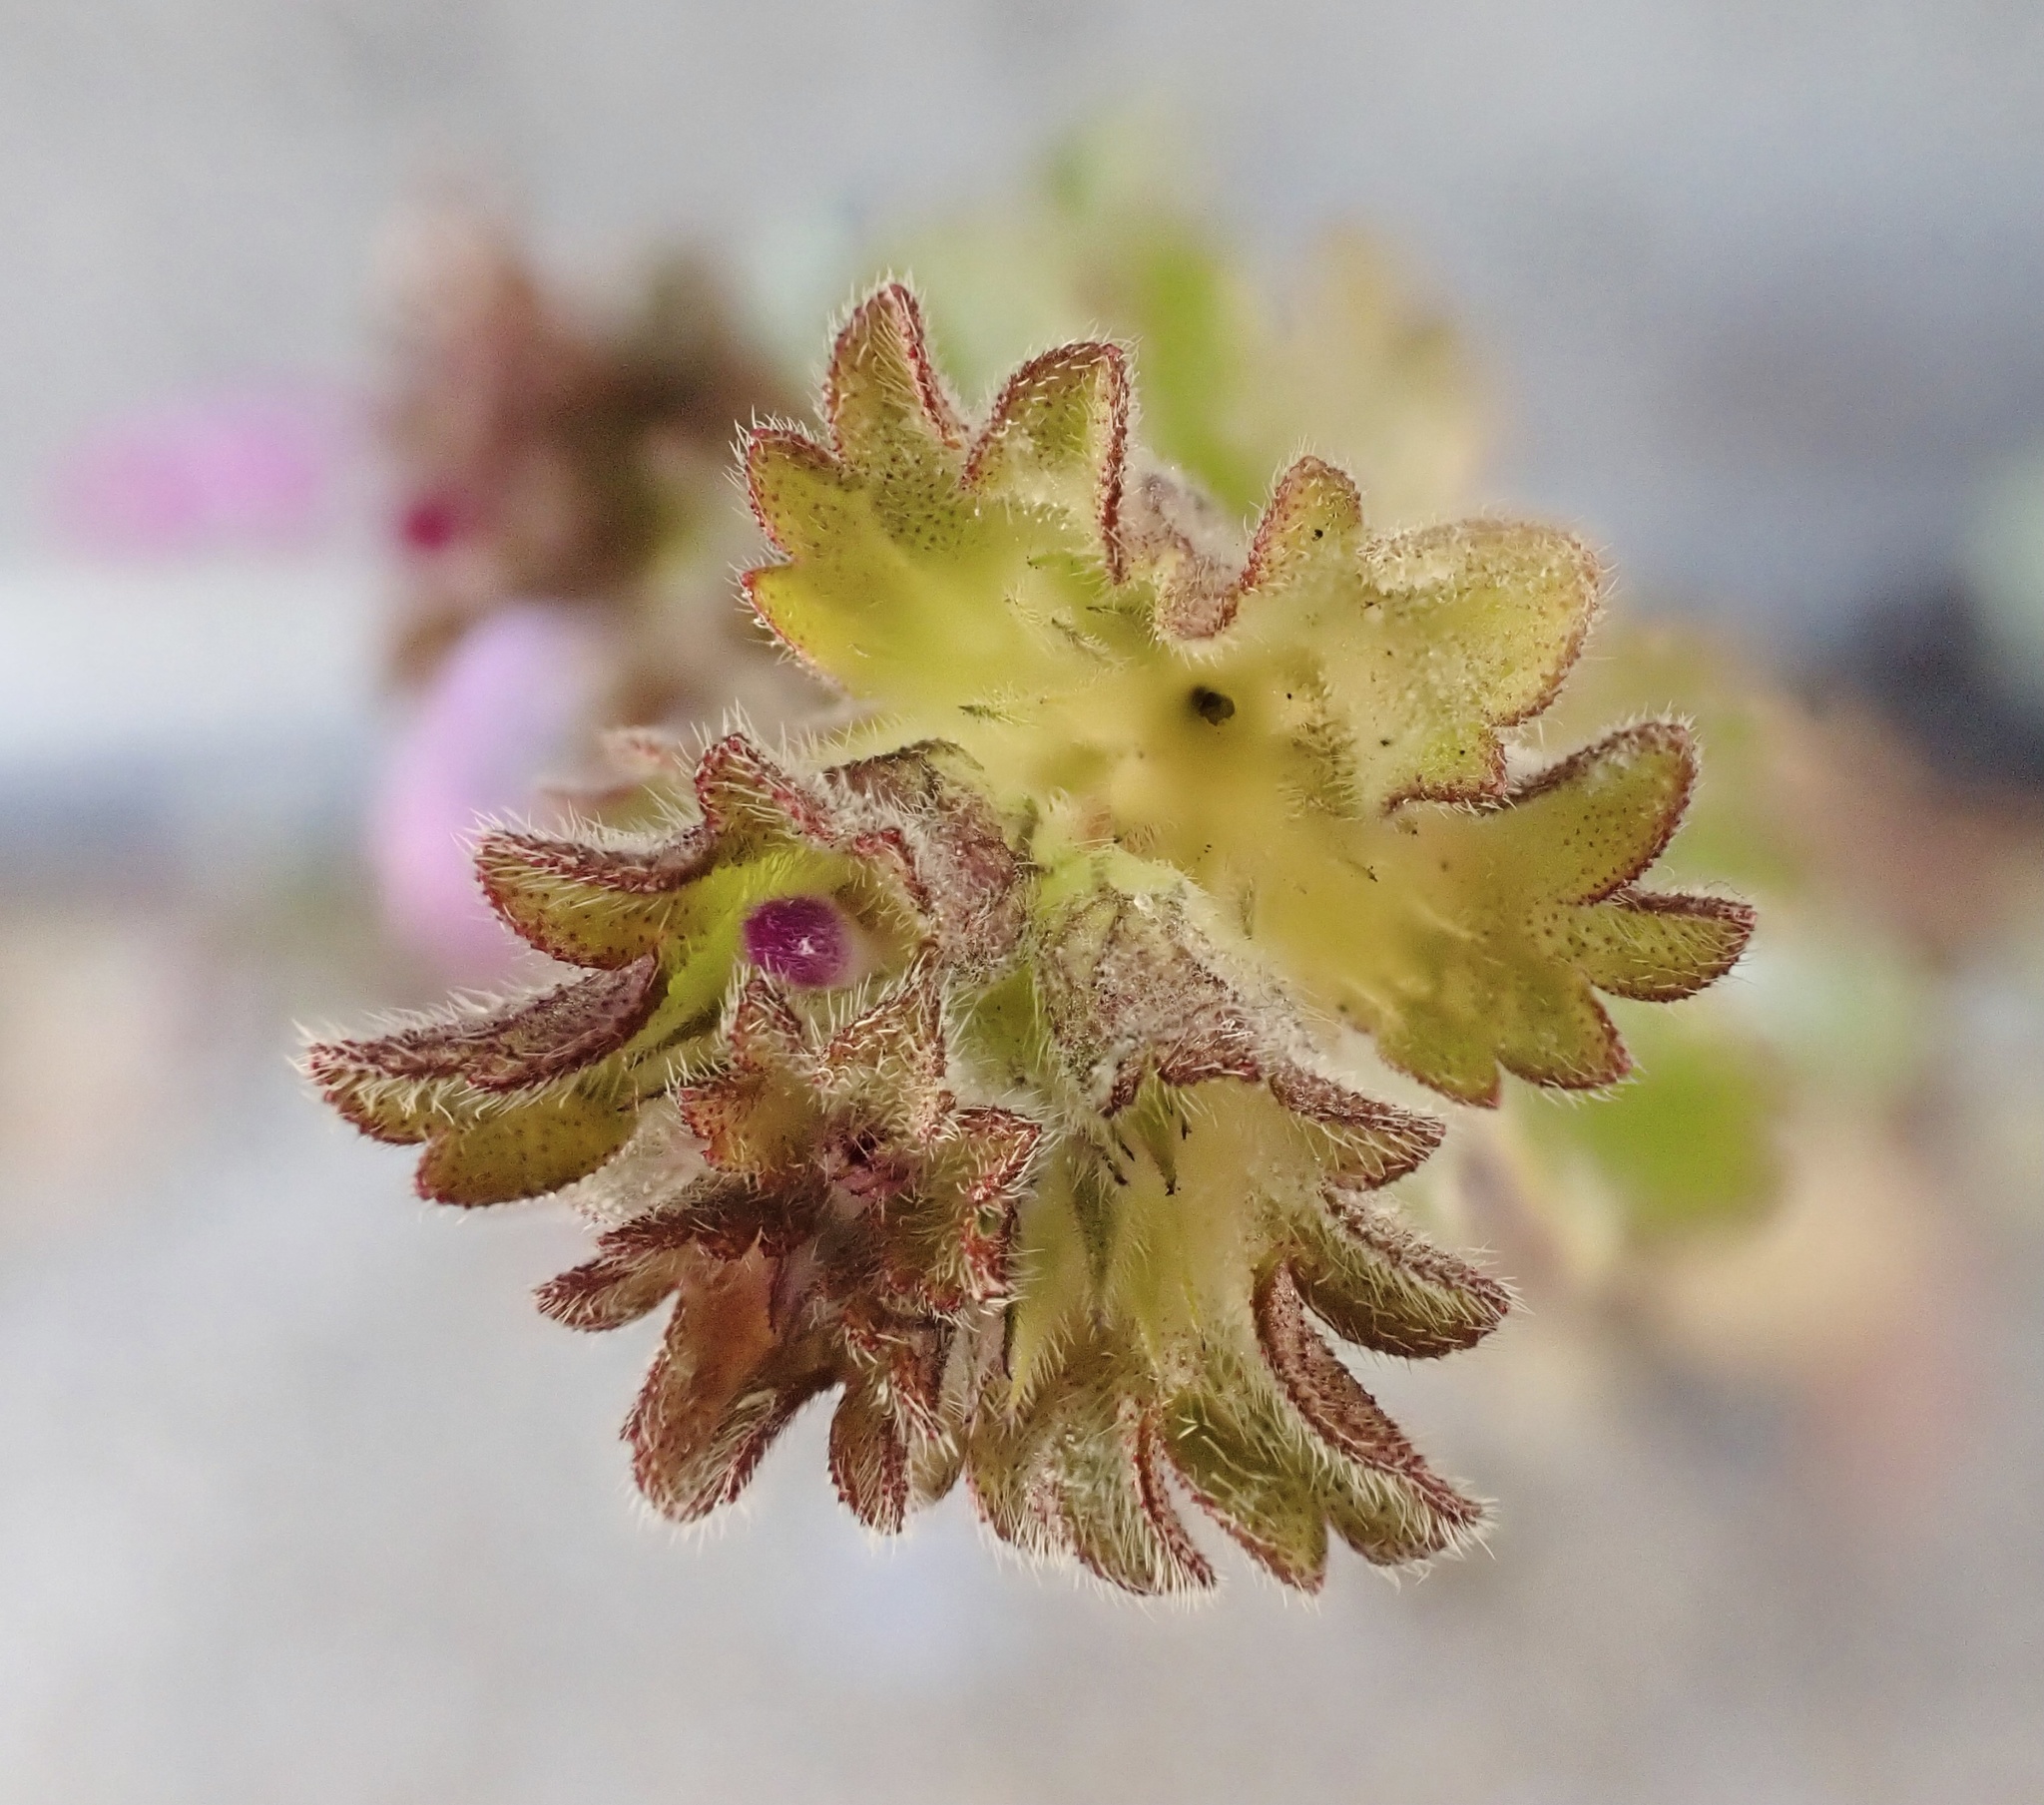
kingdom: Plantae
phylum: Tracheophyta
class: Magnoliopsida
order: Lamiales
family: Lamiaceae
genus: Lamium
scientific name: Lamium amplexicaule
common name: Henbit dead-nettle
